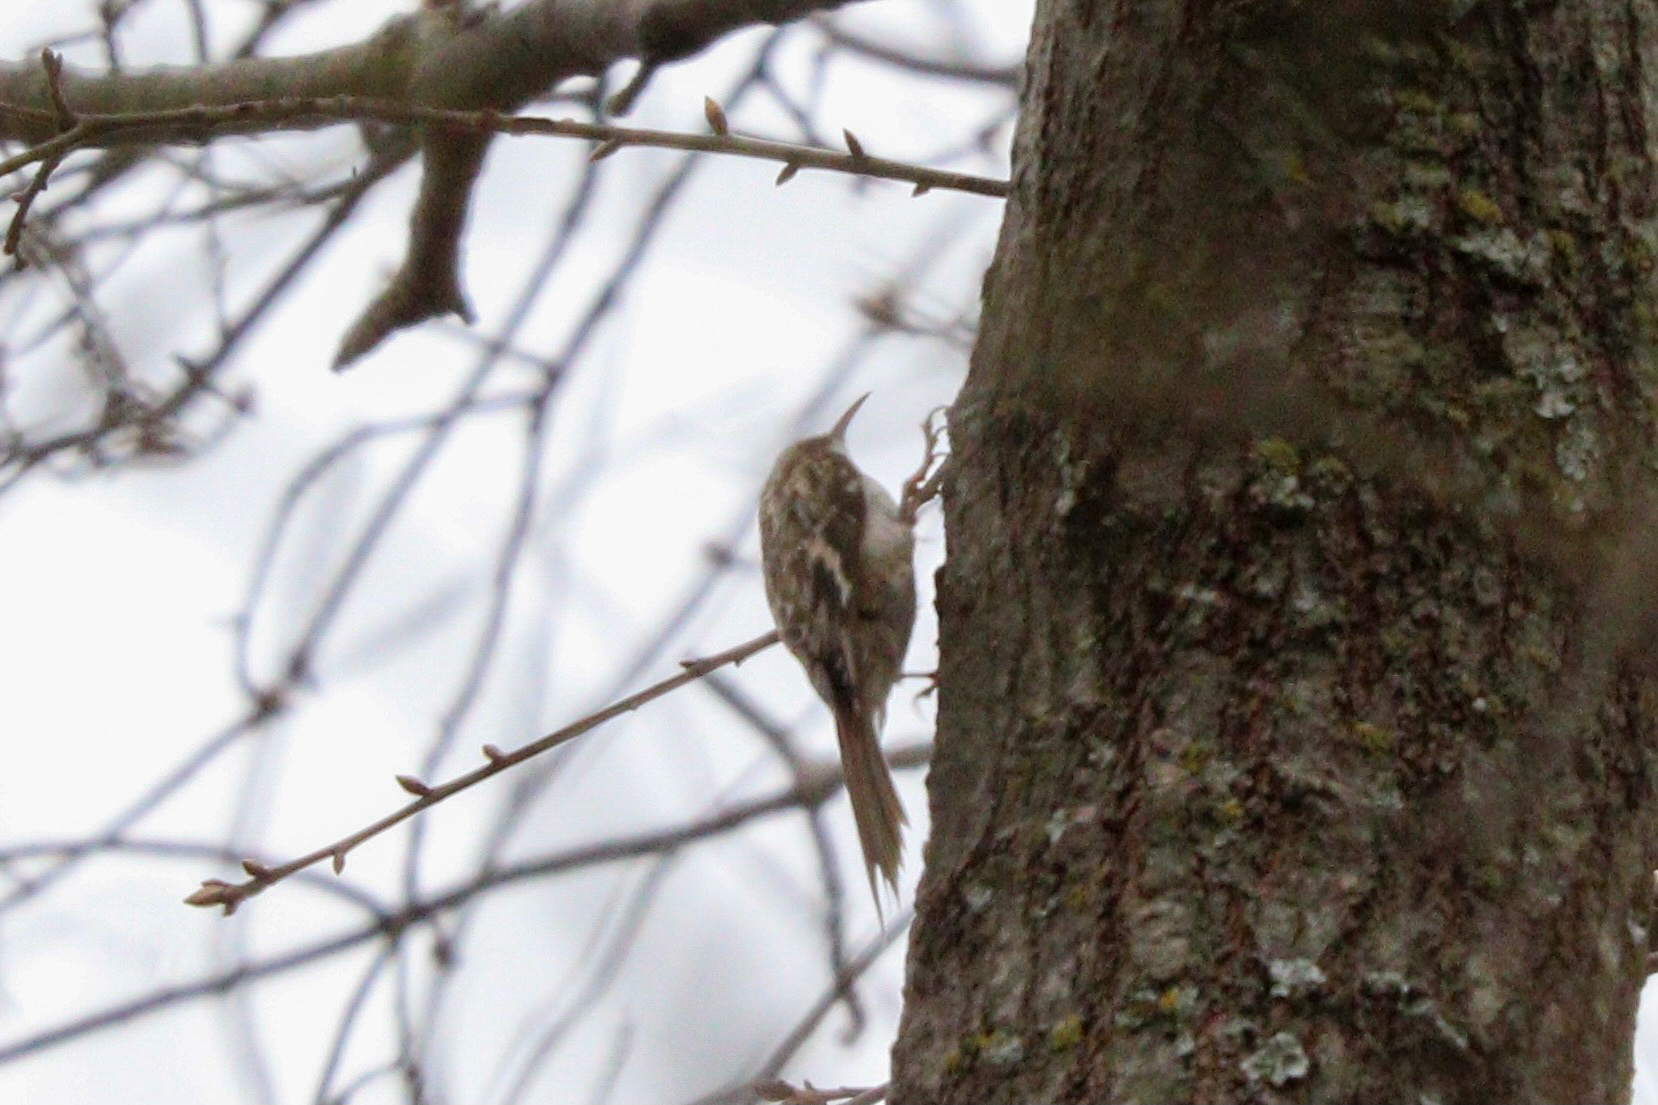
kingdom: Animalia
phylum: Chordata
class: Aves
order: Passeriformes
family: Certhiidae
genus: Certhia
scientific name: Certhia americana
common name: Brown creeper
